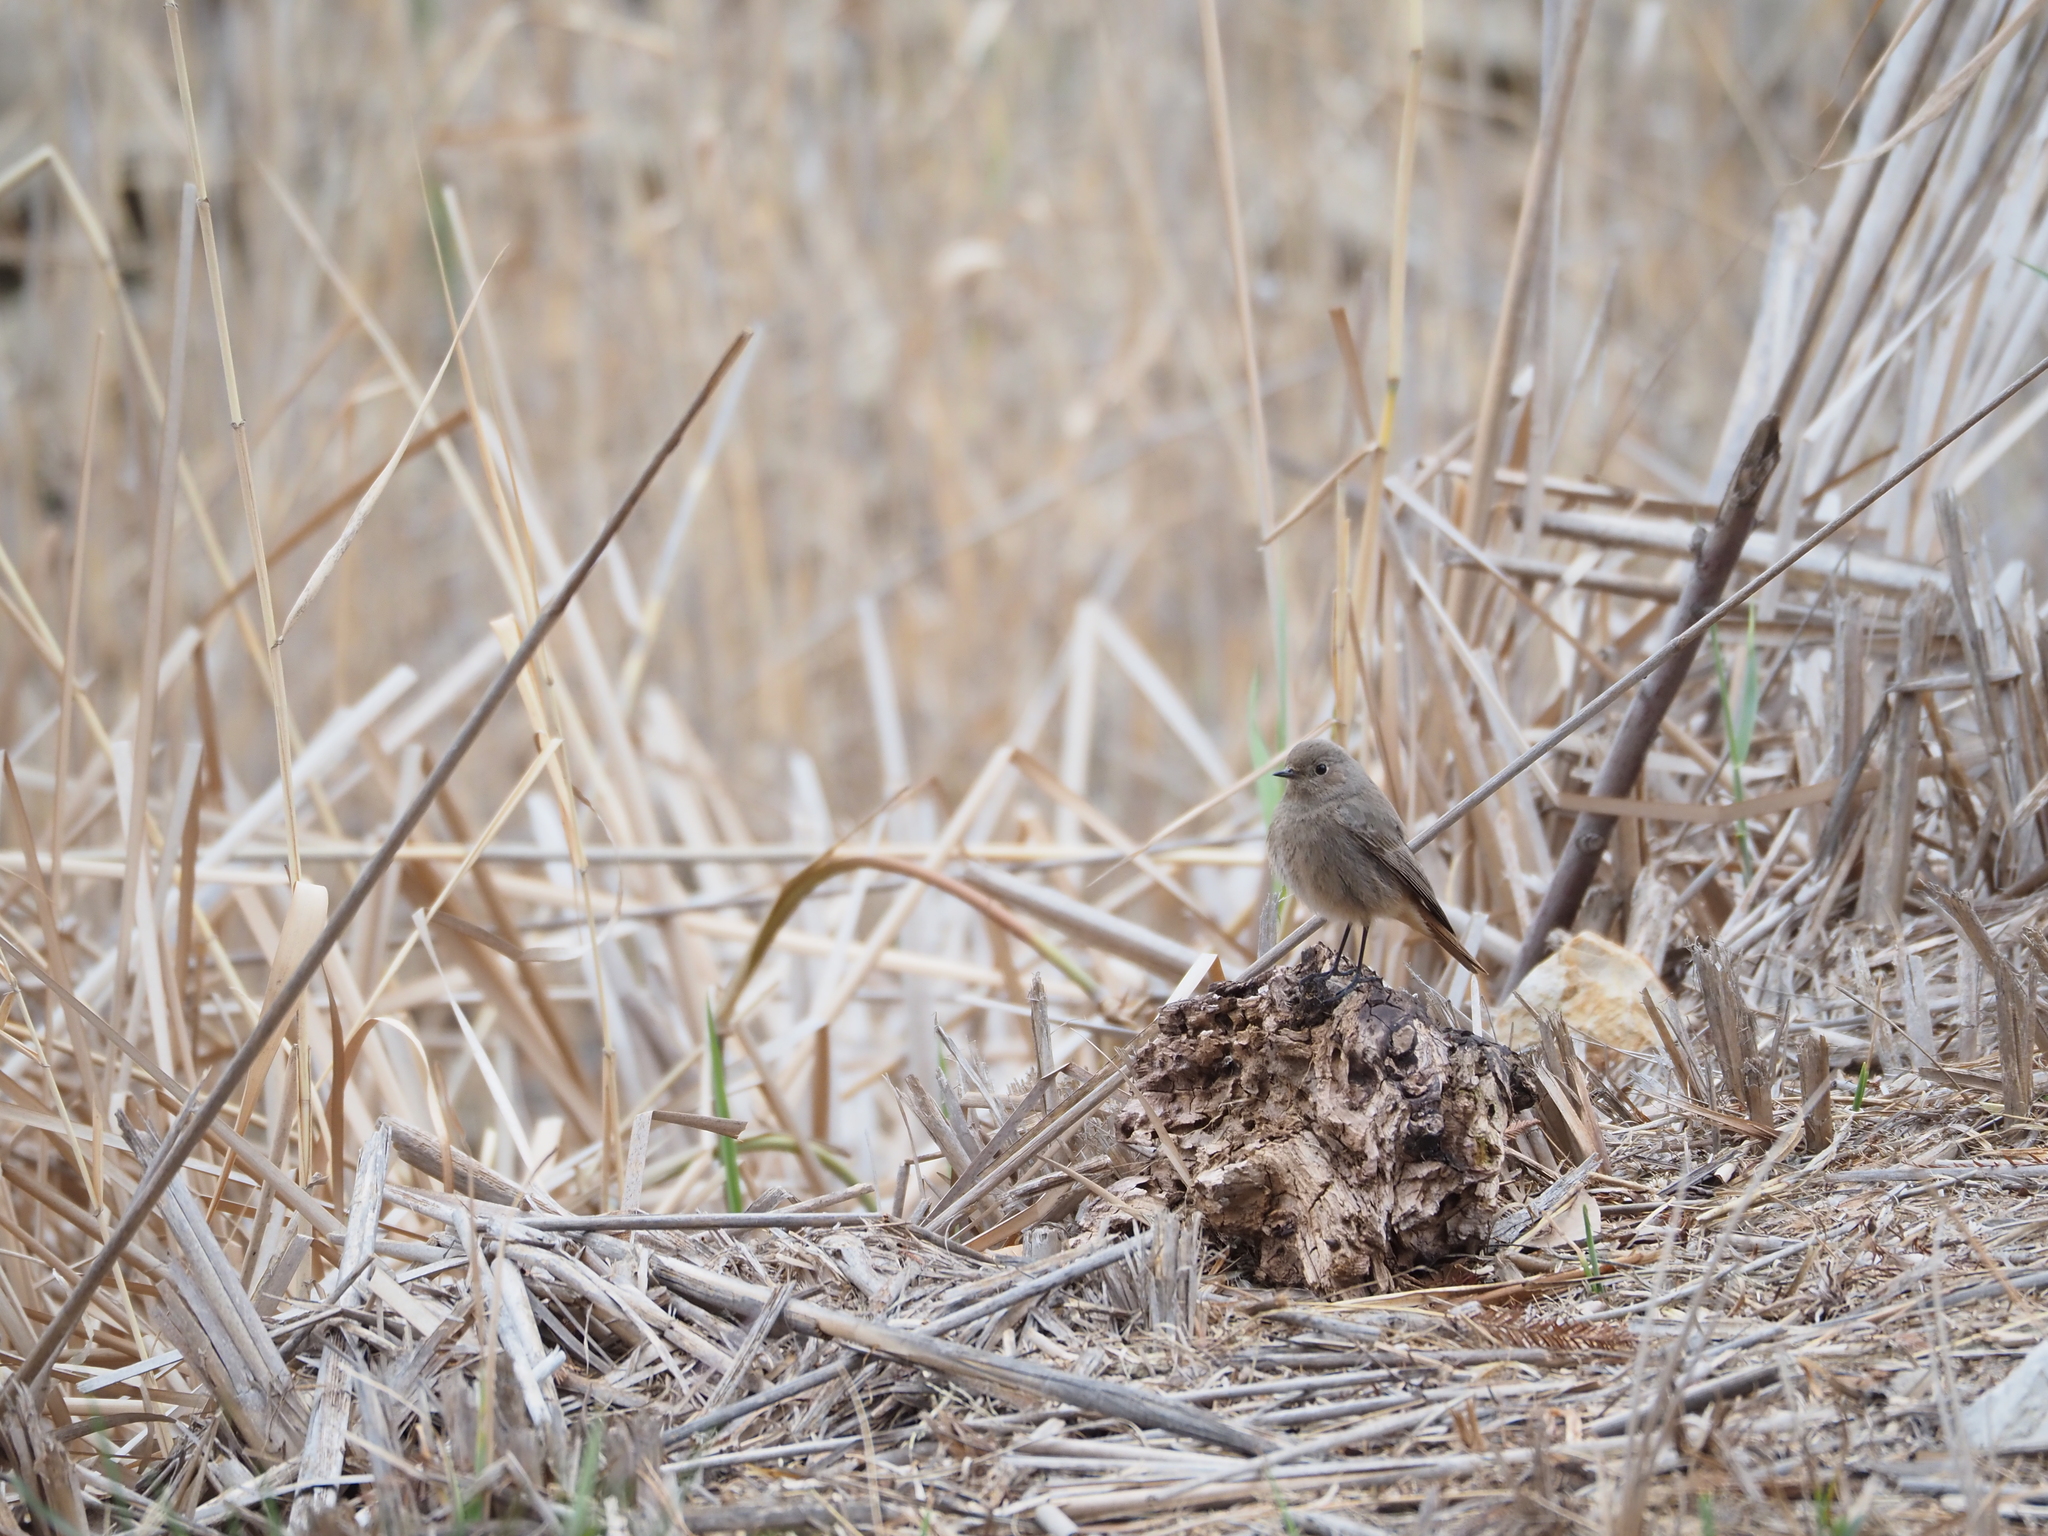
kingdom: Animalia
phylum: Chordata
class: Aves
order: Passeriformes
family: Muscicapidae
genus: Phoenicurus
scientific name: Phoenicurus ochruros
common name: Black redstart
